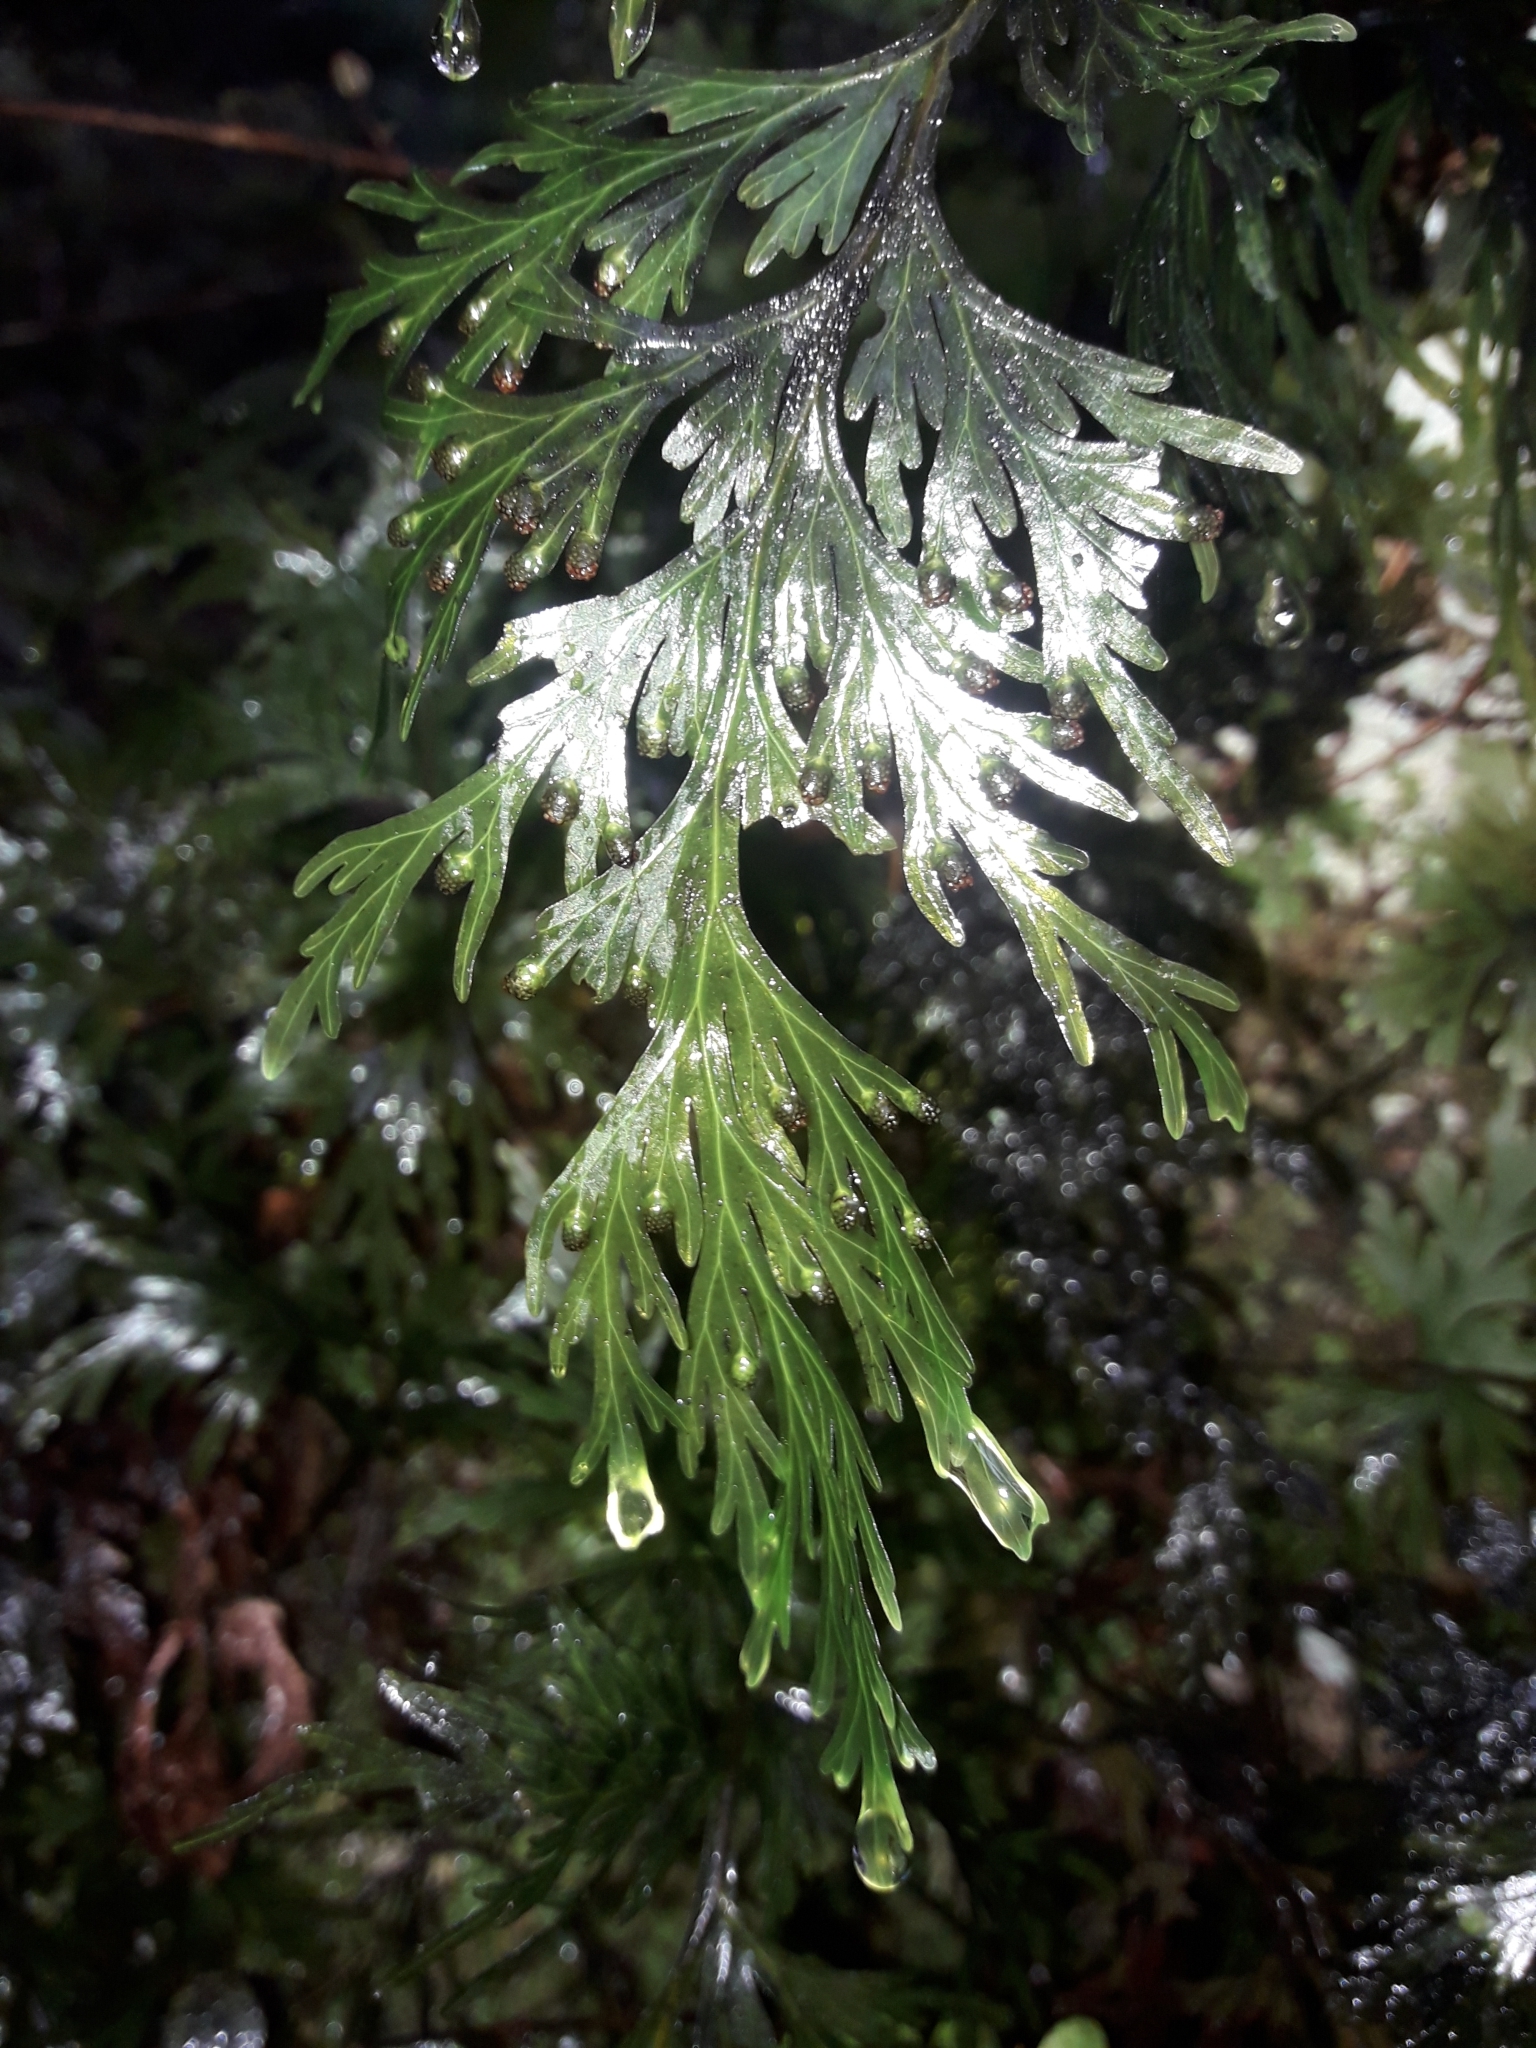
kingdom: Plantae
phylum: Tracheophyta
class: Polypodiopsida
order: Hymenophyllales
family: Hymenophyllaceae
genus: Hymenophyllum
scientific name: Hymenophyllum dilatatum
